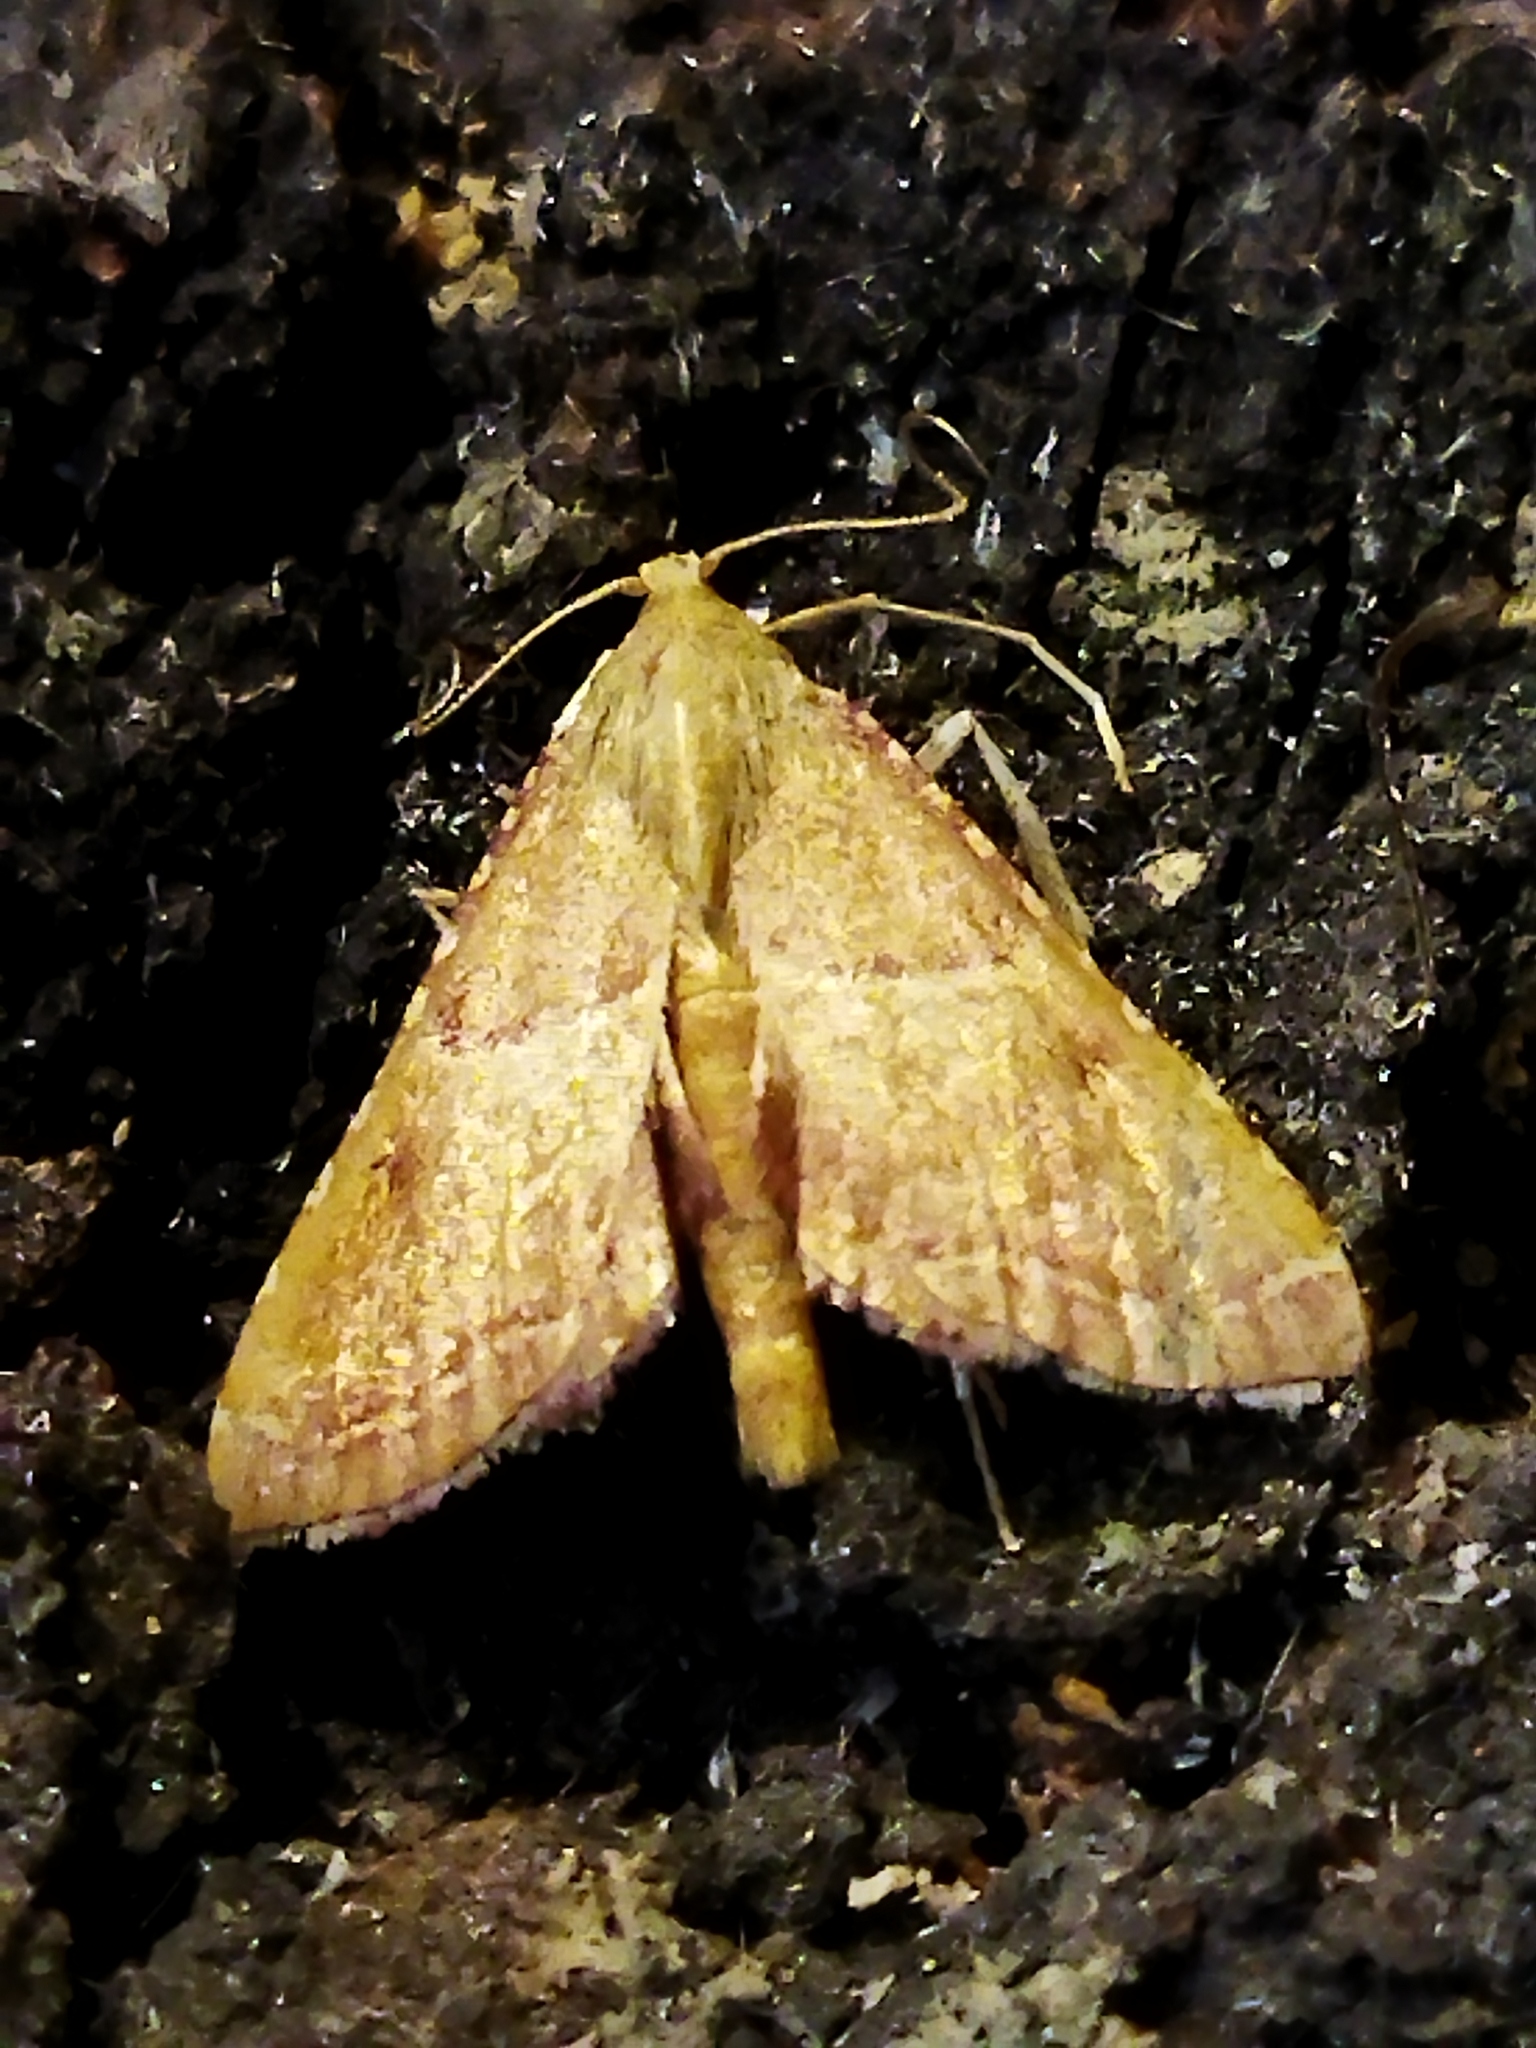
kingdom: Animalia
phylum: Arthropoda
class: Insecta
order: Lepidoptera
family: Pyralidae
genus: Endotricha
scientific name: Endotricha flammealis
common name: Rosy tabby
